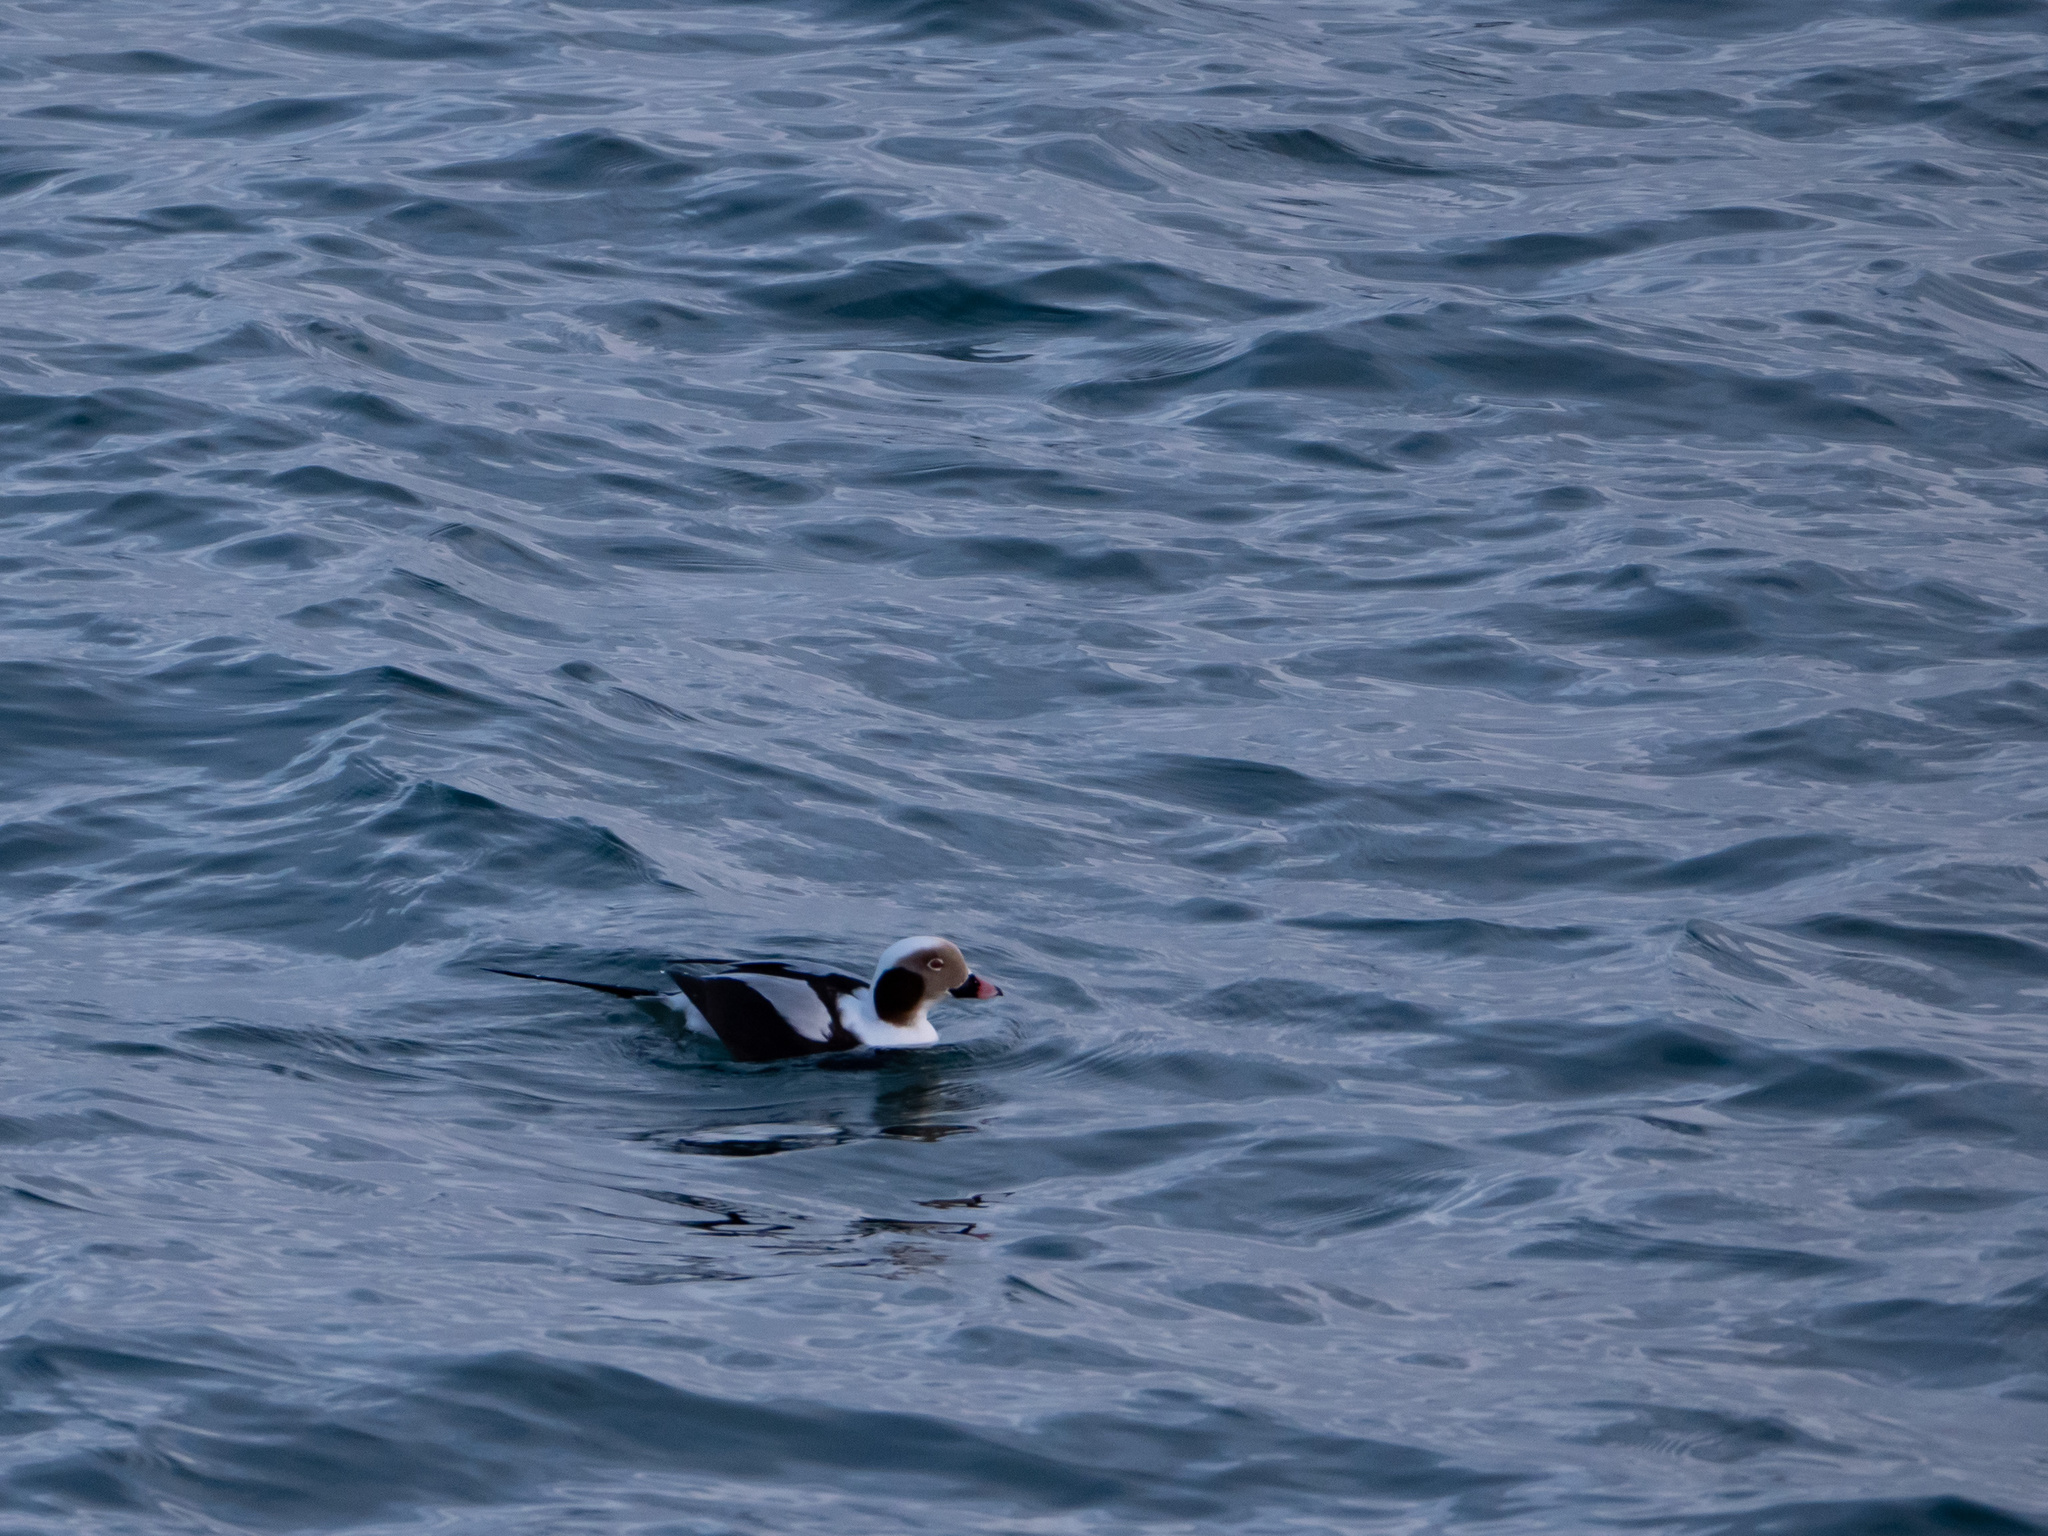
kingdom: Animalia
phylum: Chordata
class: Aves
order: Anseriformes
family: Anatidae
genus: Clangula
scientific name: Clangula hyemalis
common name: Long-tailed duck
